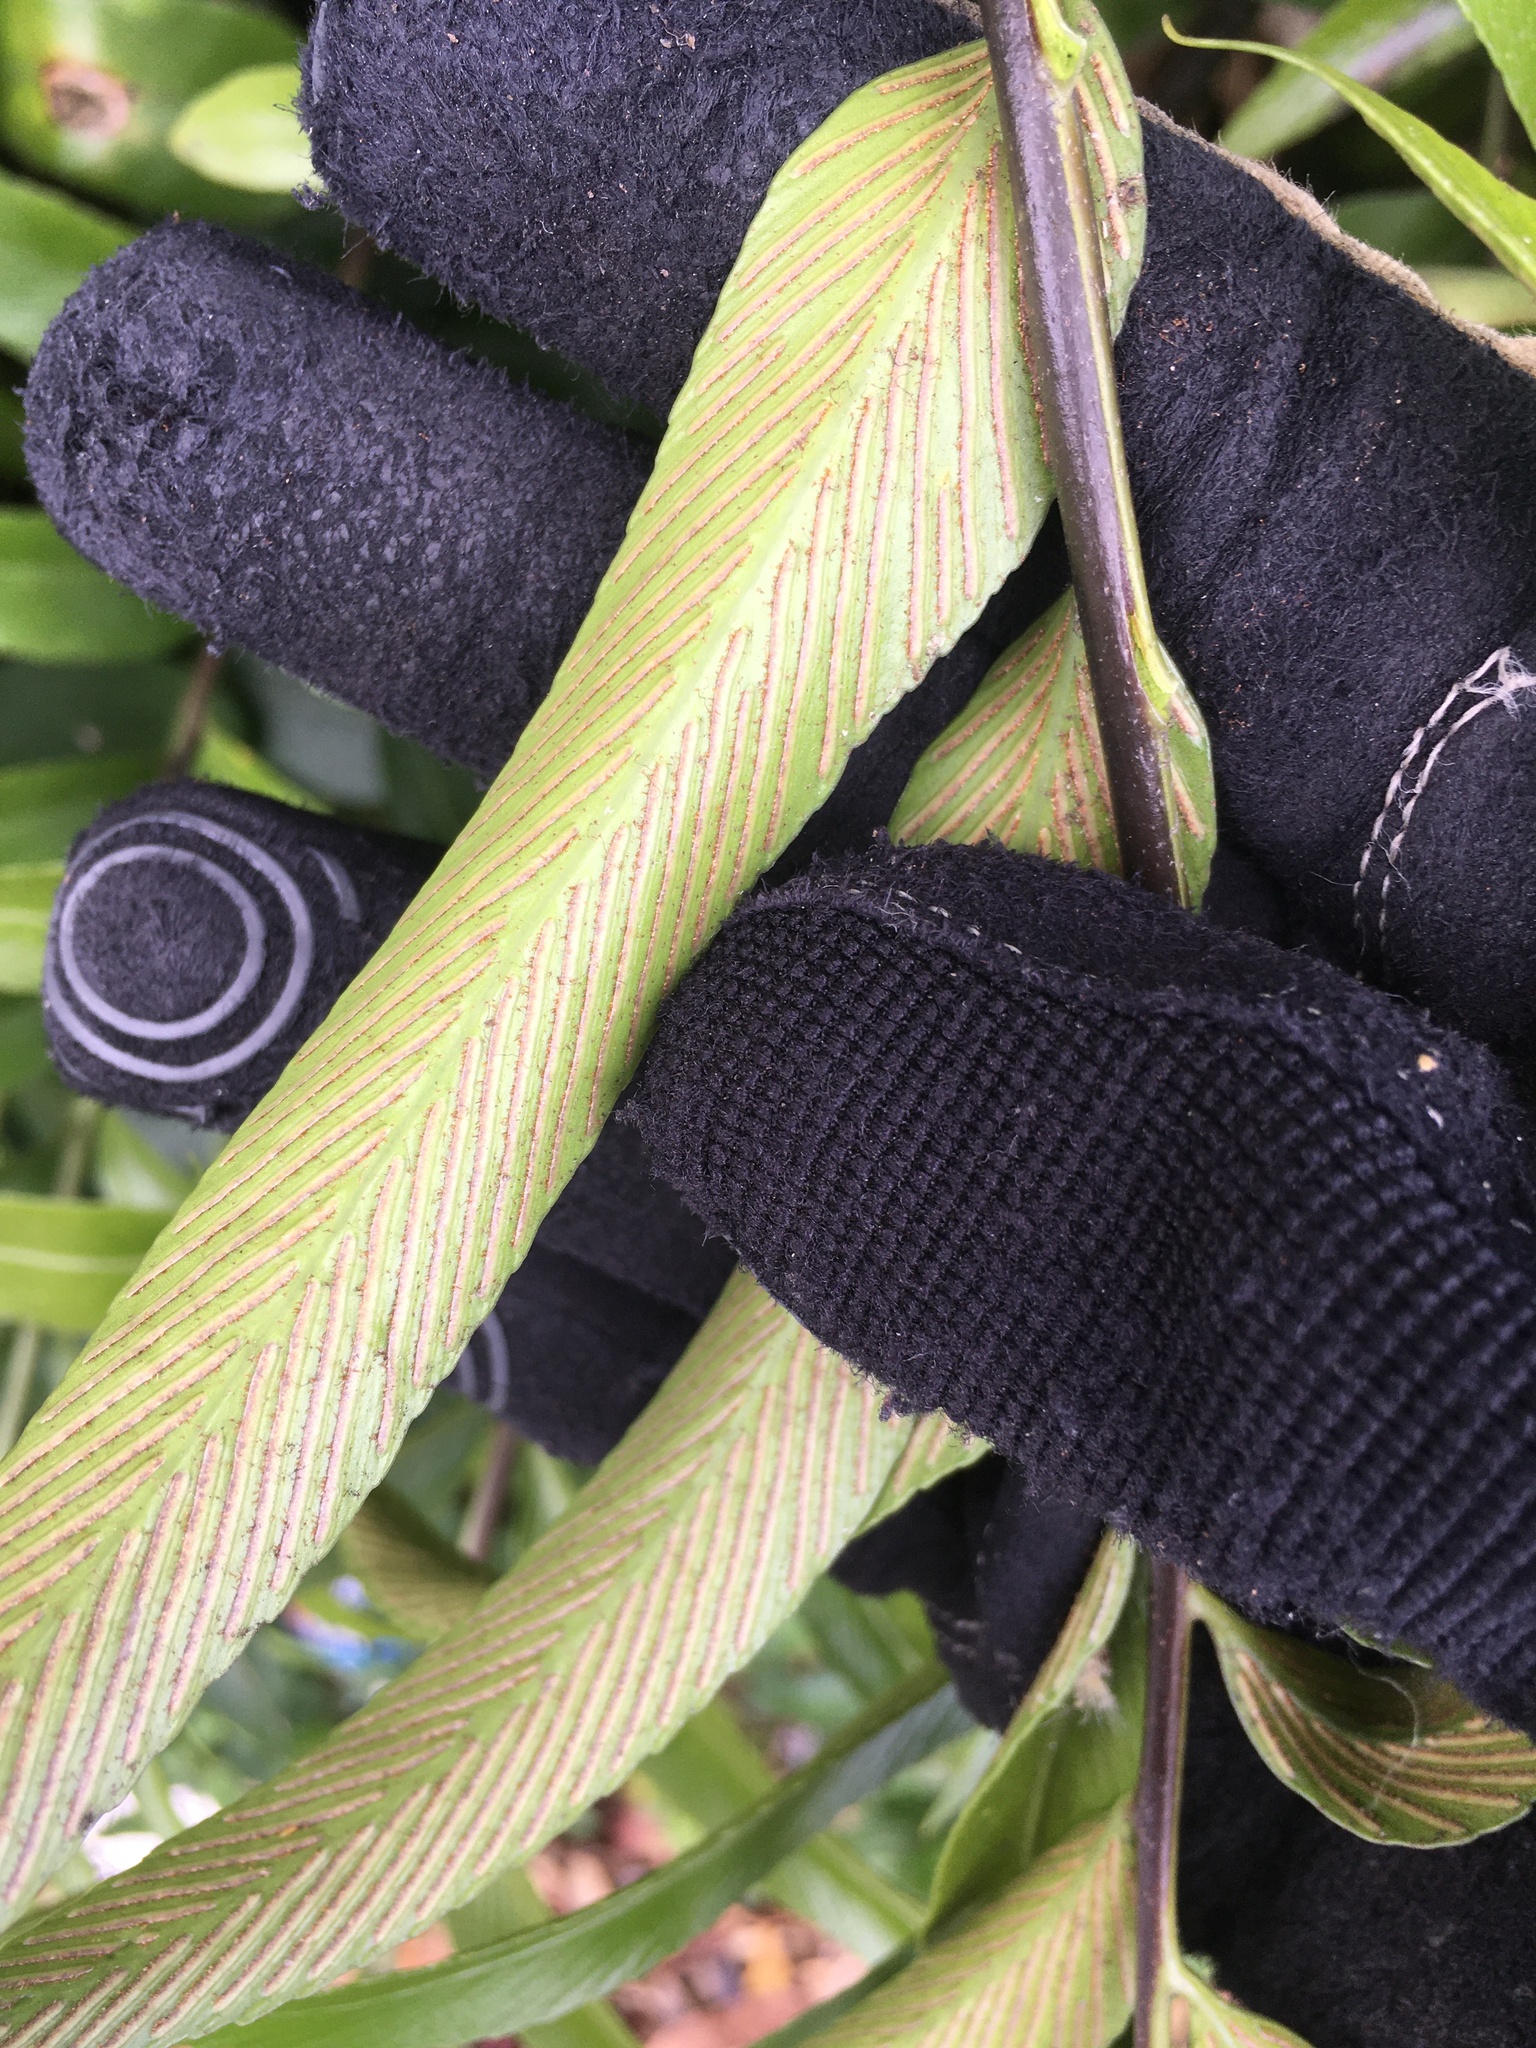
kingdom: Plantae
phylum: Tracheophyta
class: Polypodiopsida
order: Polypodiales
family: Aspleniaceae
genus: Asplenium
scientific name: Asplenium oblongifolium
